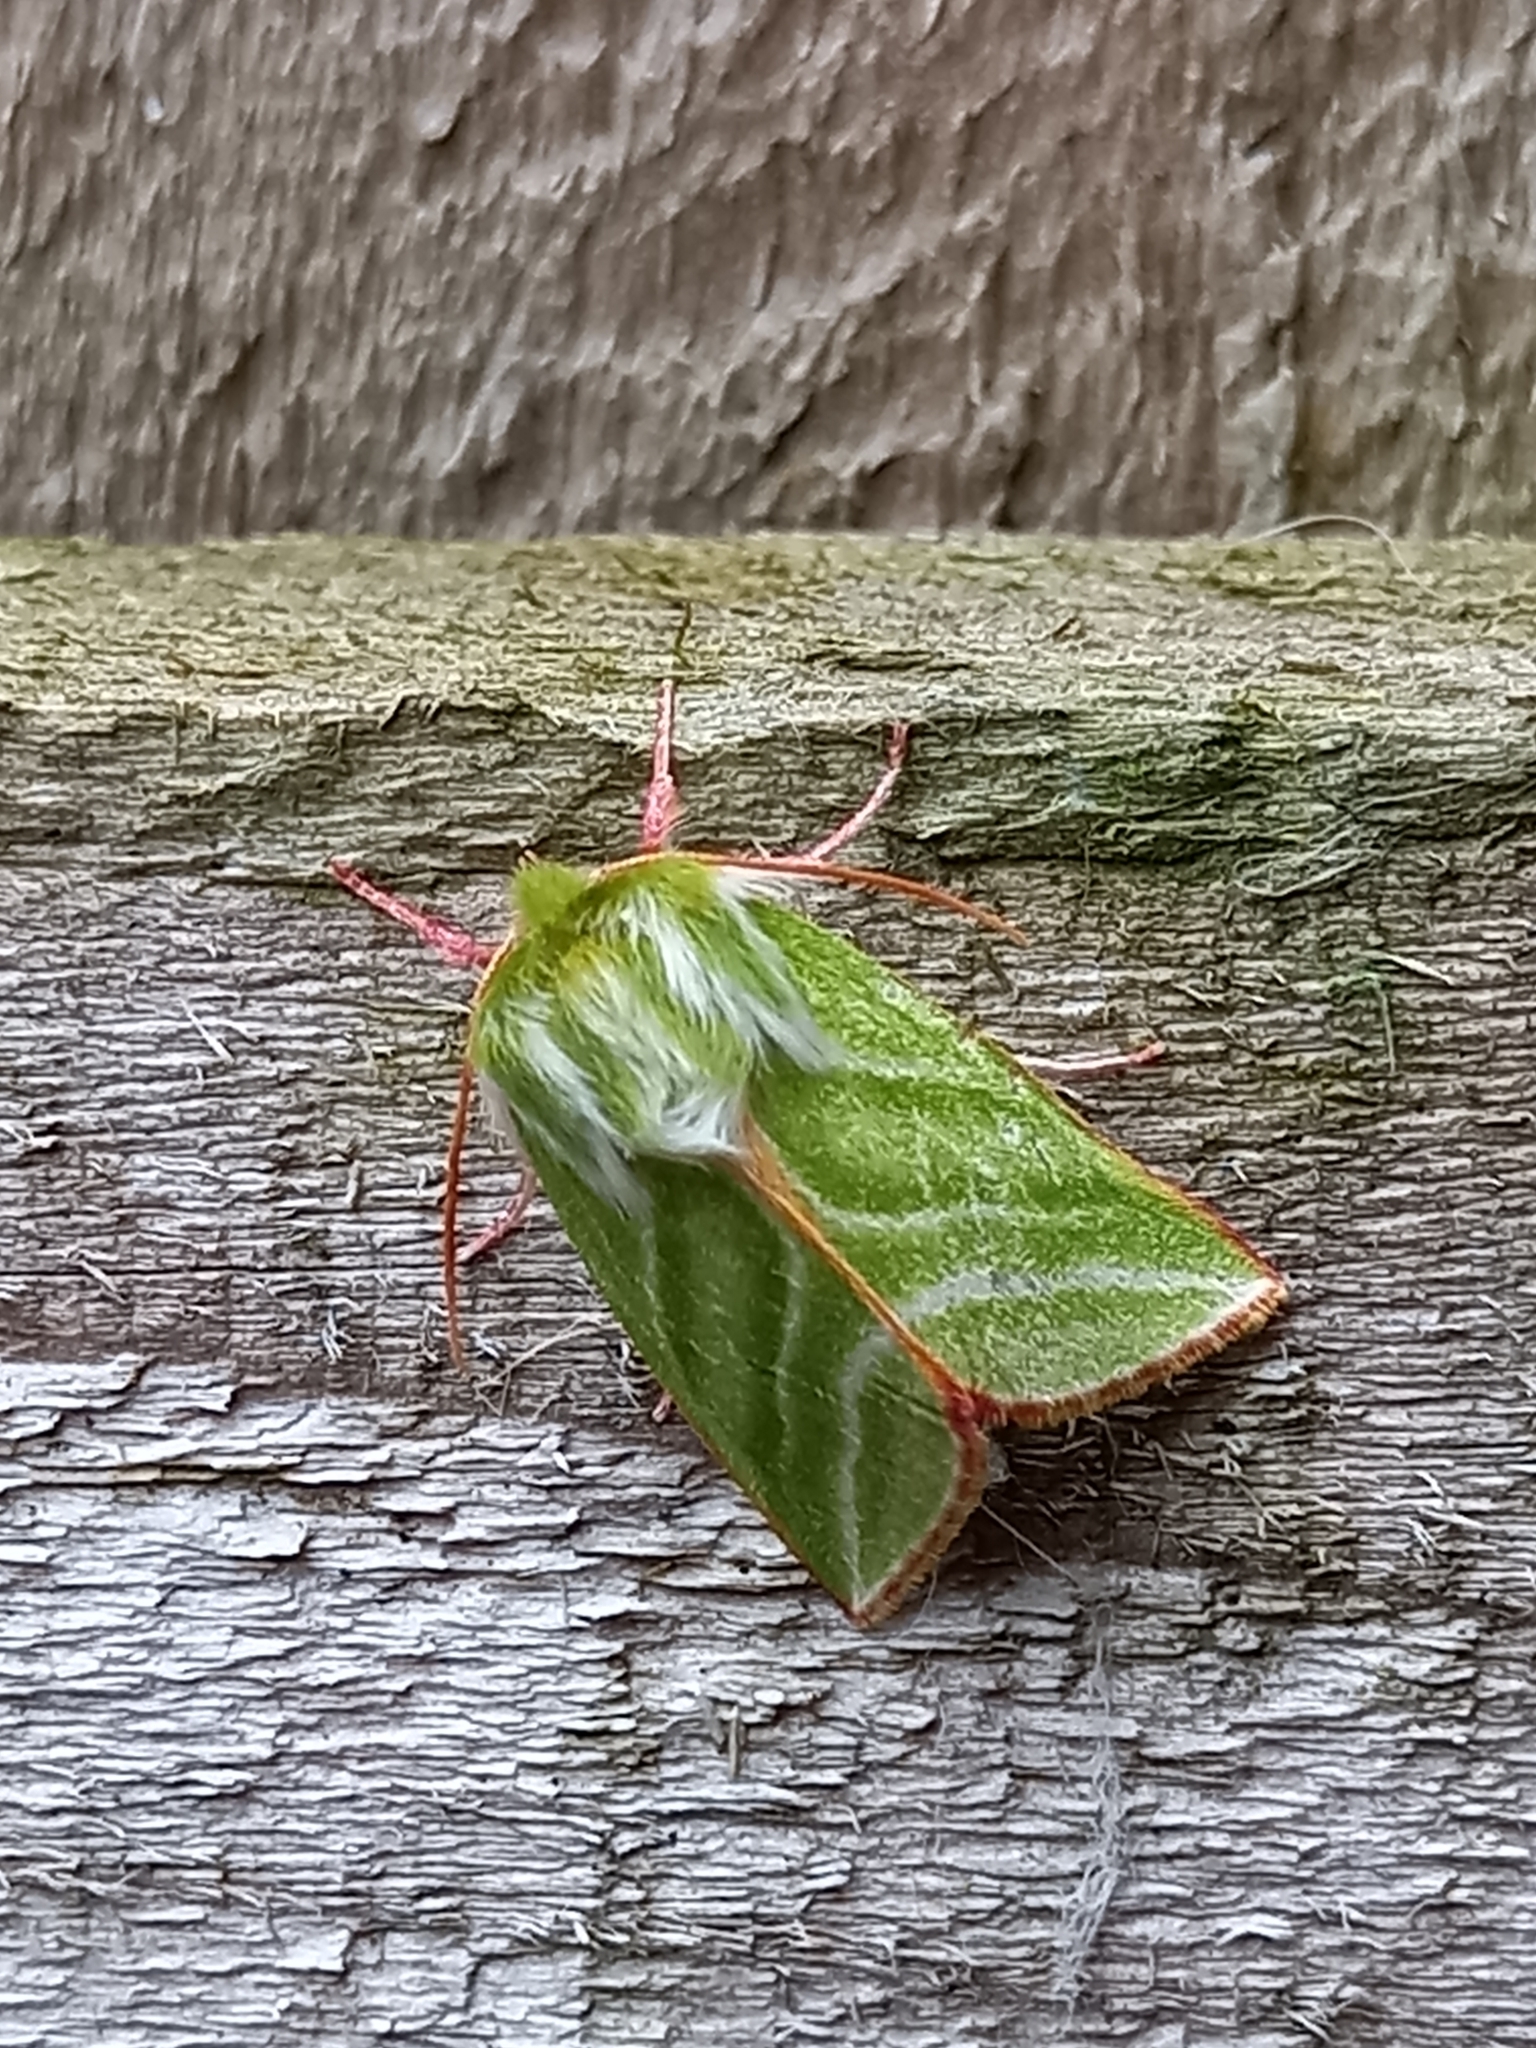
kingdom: Animalia
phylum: Arthropoda
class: Insecta
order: Lepidoptera
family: Nolidae
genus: Pseudoips
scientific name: Pseudoips prasinana
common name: Green silver-lines
